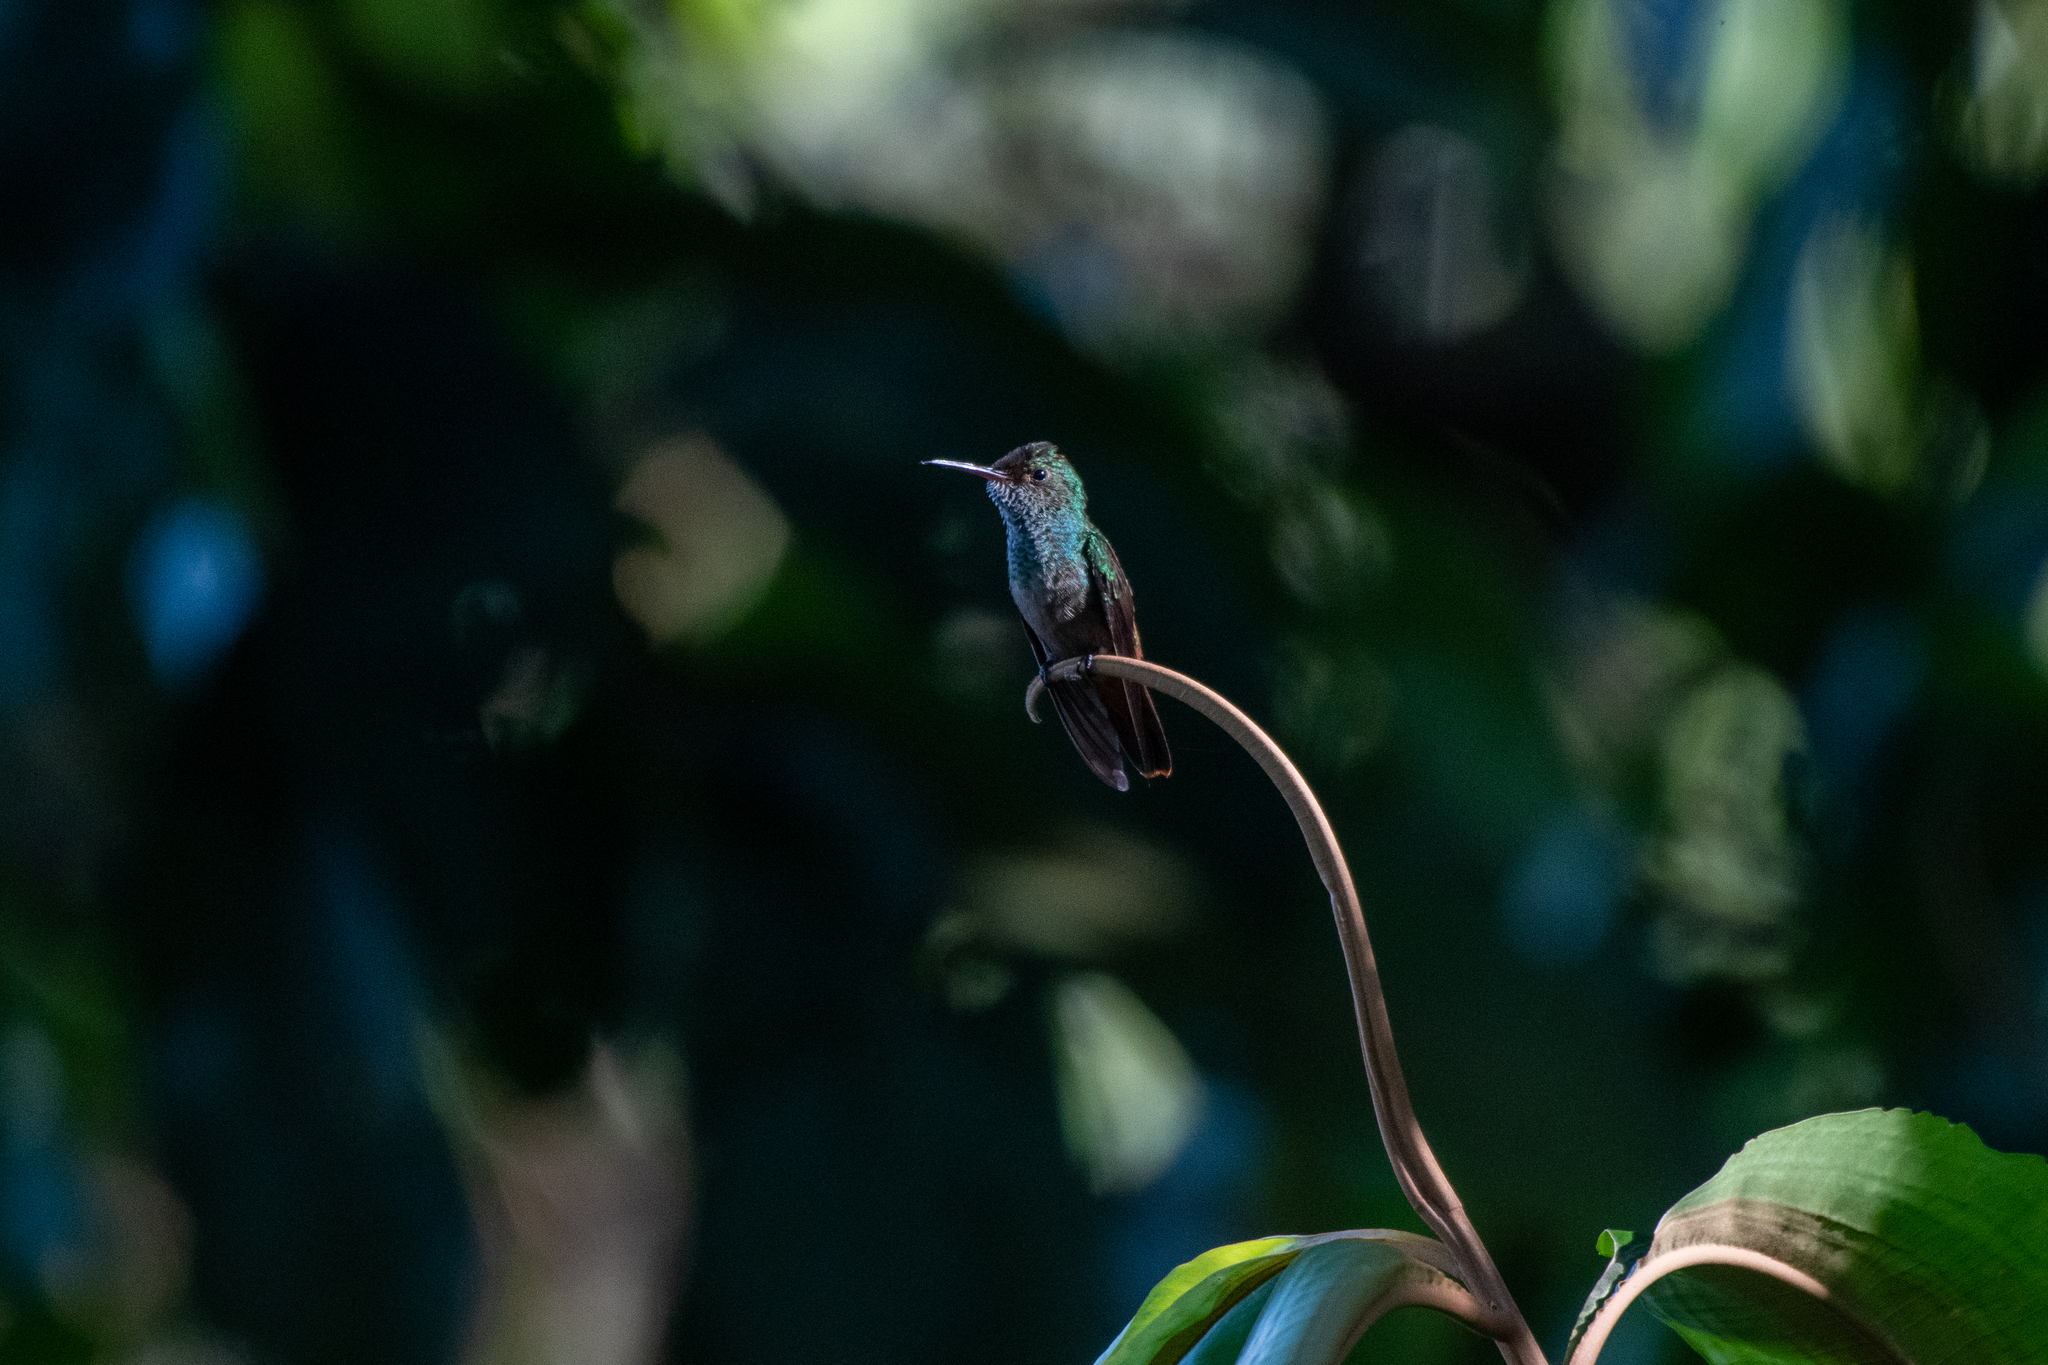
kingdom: Animalia
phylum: Chordata
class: Aves
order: Apodiformes
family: Trochilidae
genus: Amazilia
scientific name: Amazilia tzacatl
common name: Rufous-tailed hummingbird
